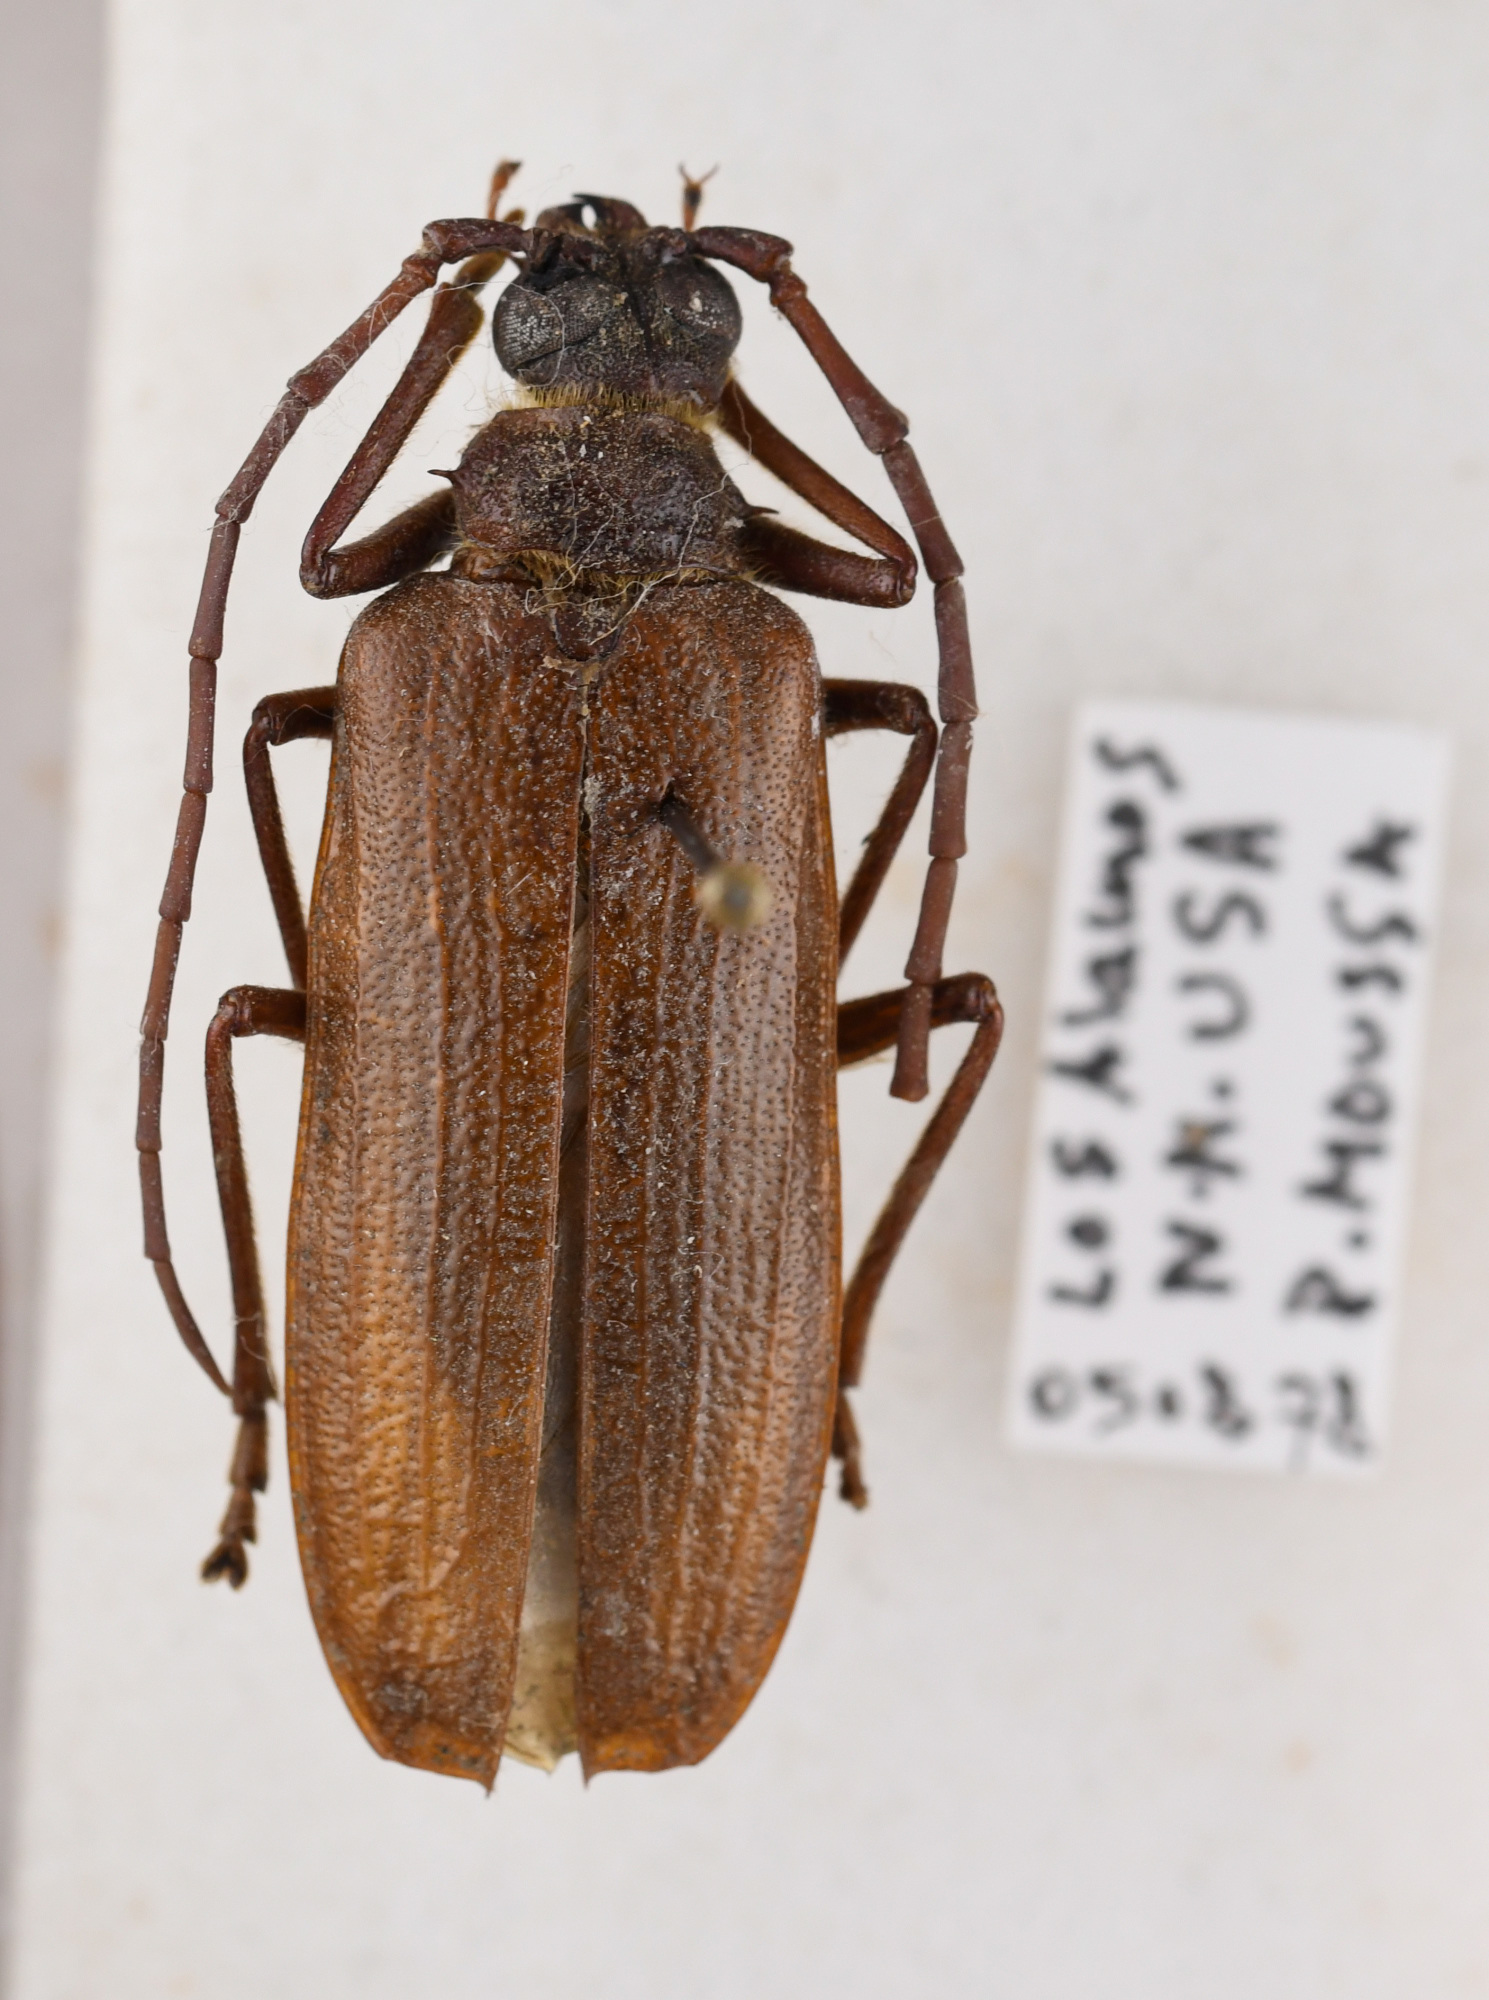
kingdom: Animalia
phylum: Arthropoda
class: Insecta
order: Coleoptera
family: Cerambycidae
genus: Tragosoma
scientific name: Tragosoma harrisii
